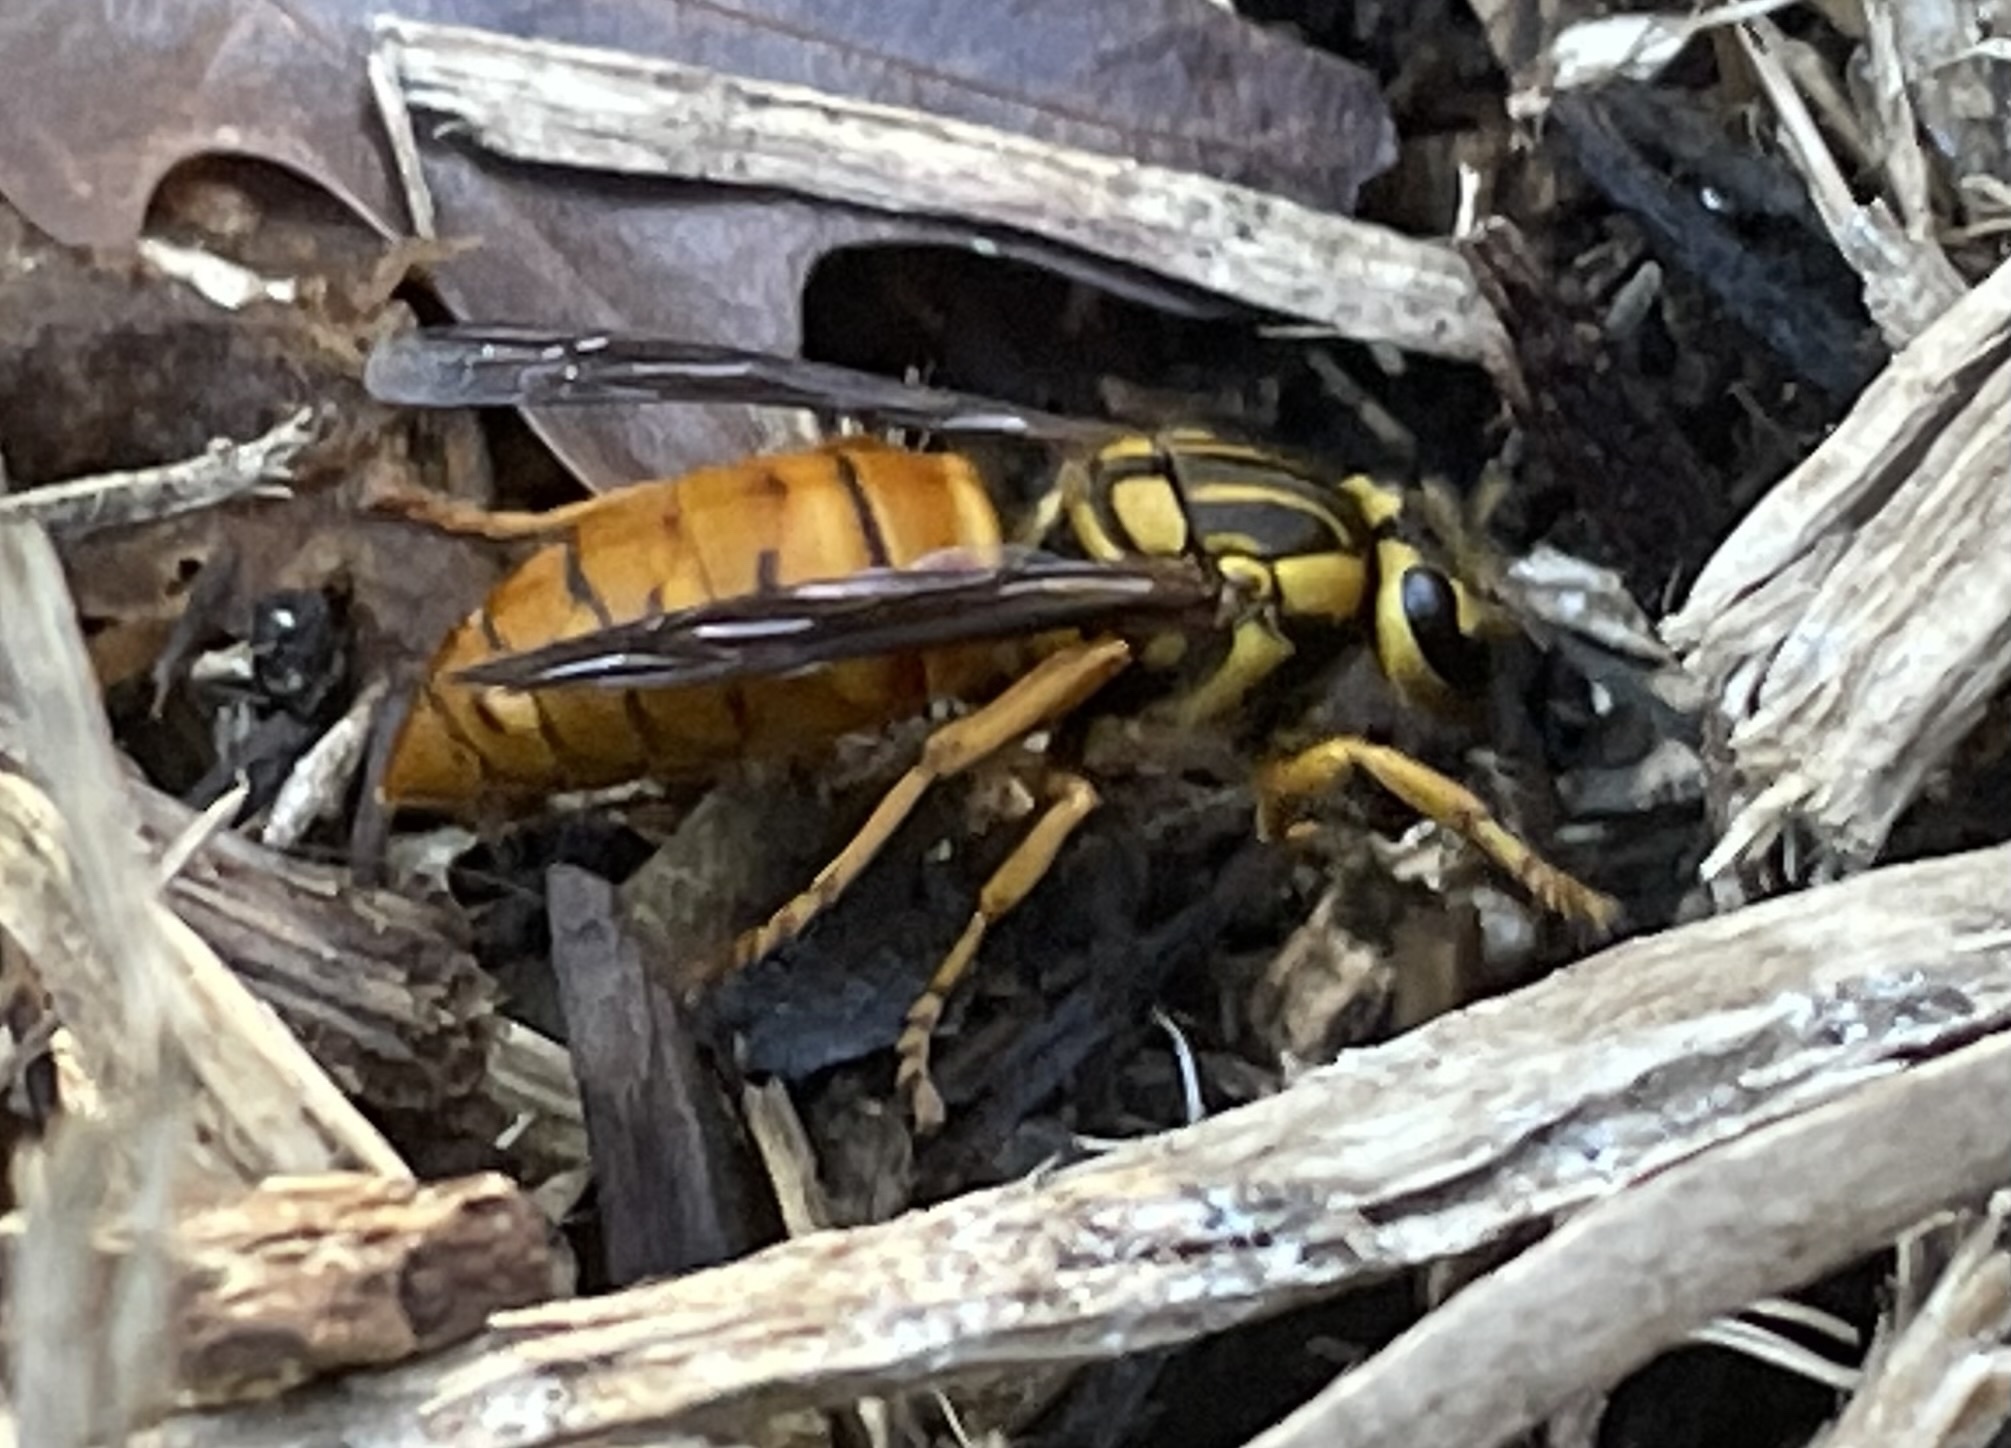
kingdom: Animalia
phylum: Arthropoda
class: Insecta
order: Hymenoptera
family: Vespidae
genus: Vespula
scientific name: Vespula squamosa
